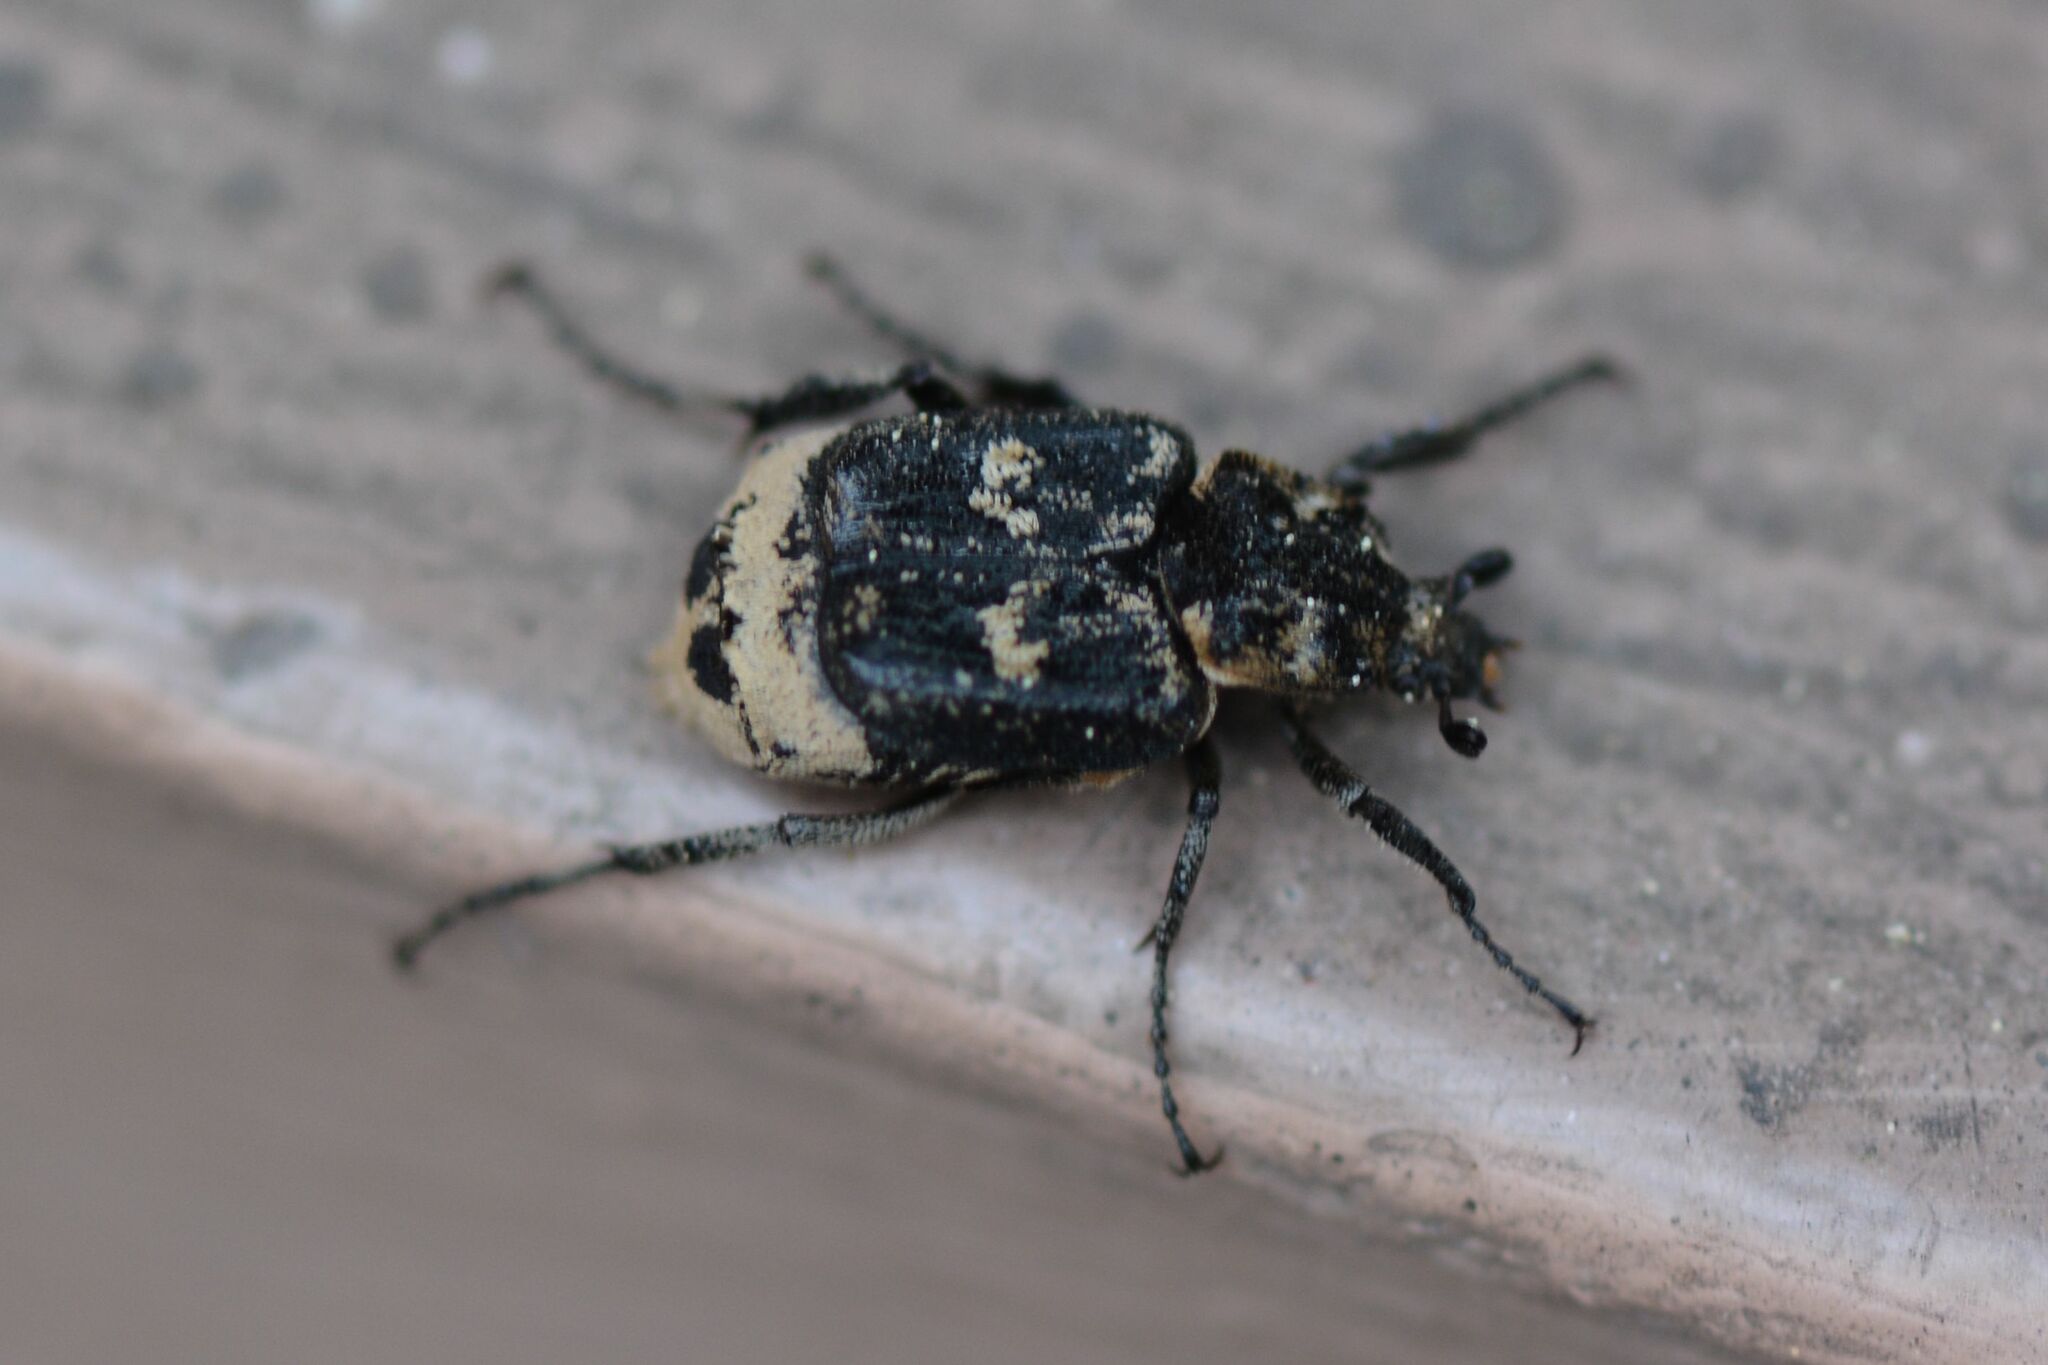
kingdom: Animalia
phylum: Arthropoda
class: Insecta
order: Coleoptera
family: Scarabaeidae
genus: Valgus
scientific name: Valgus hemipterus
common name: Bug flower chafer
